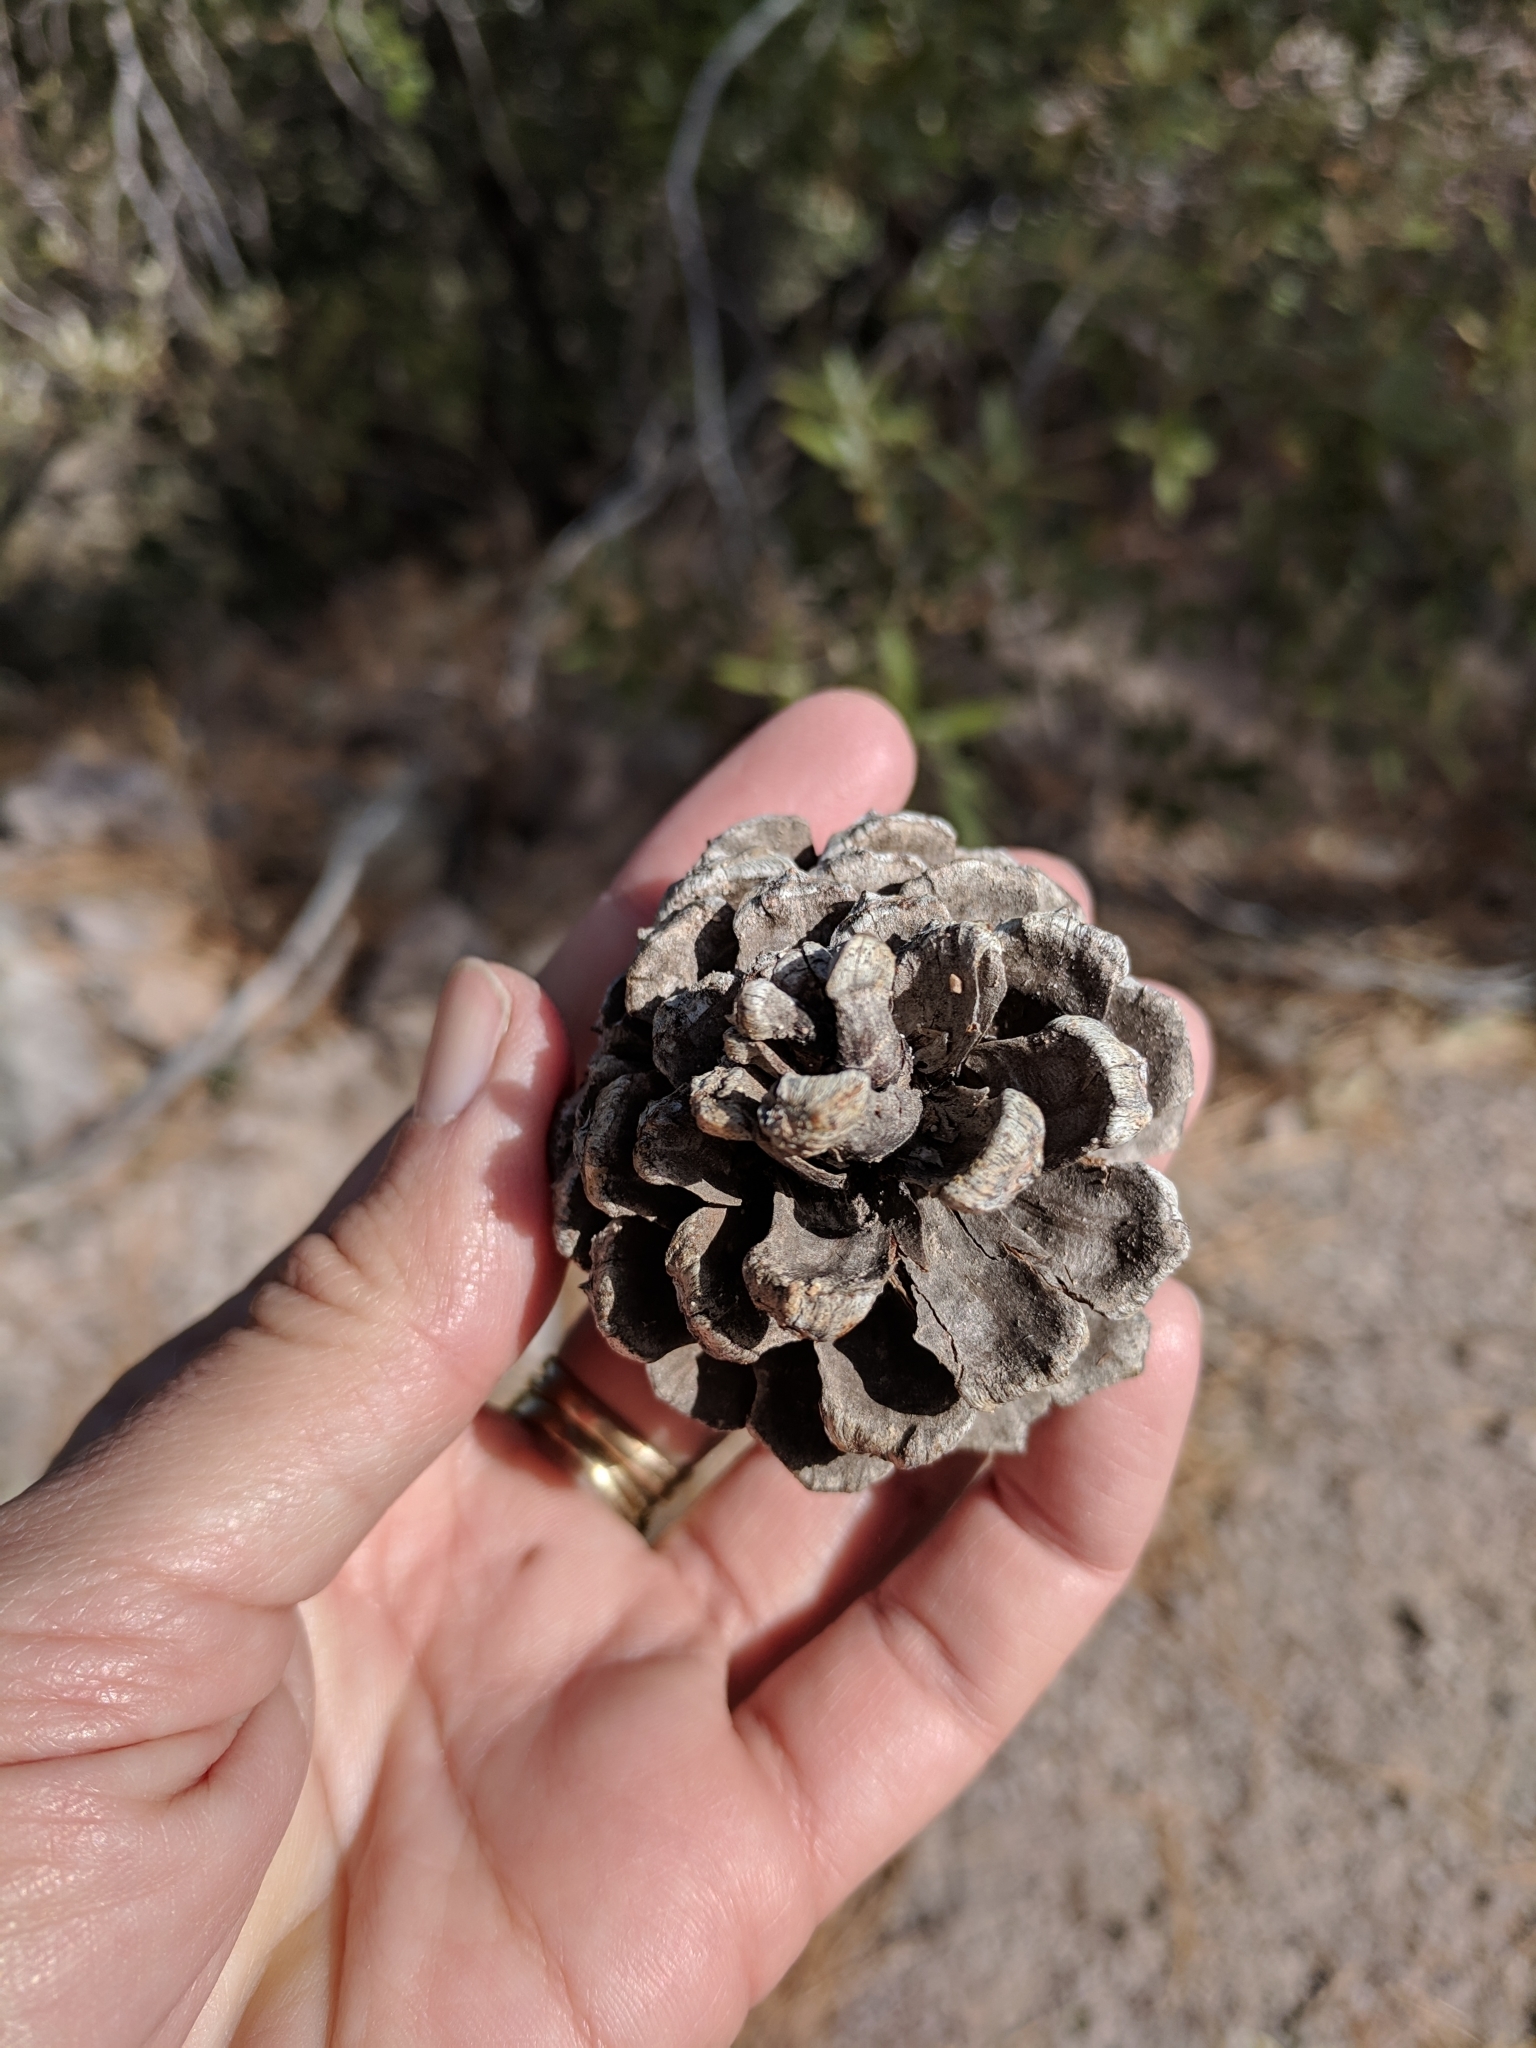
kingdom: Plantae
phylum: Tracheophyta
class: Pinopsida
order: Pinales
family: Pinaceae
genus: Pinus
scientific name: Pinus ponderosa
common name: Western yellow-pine
